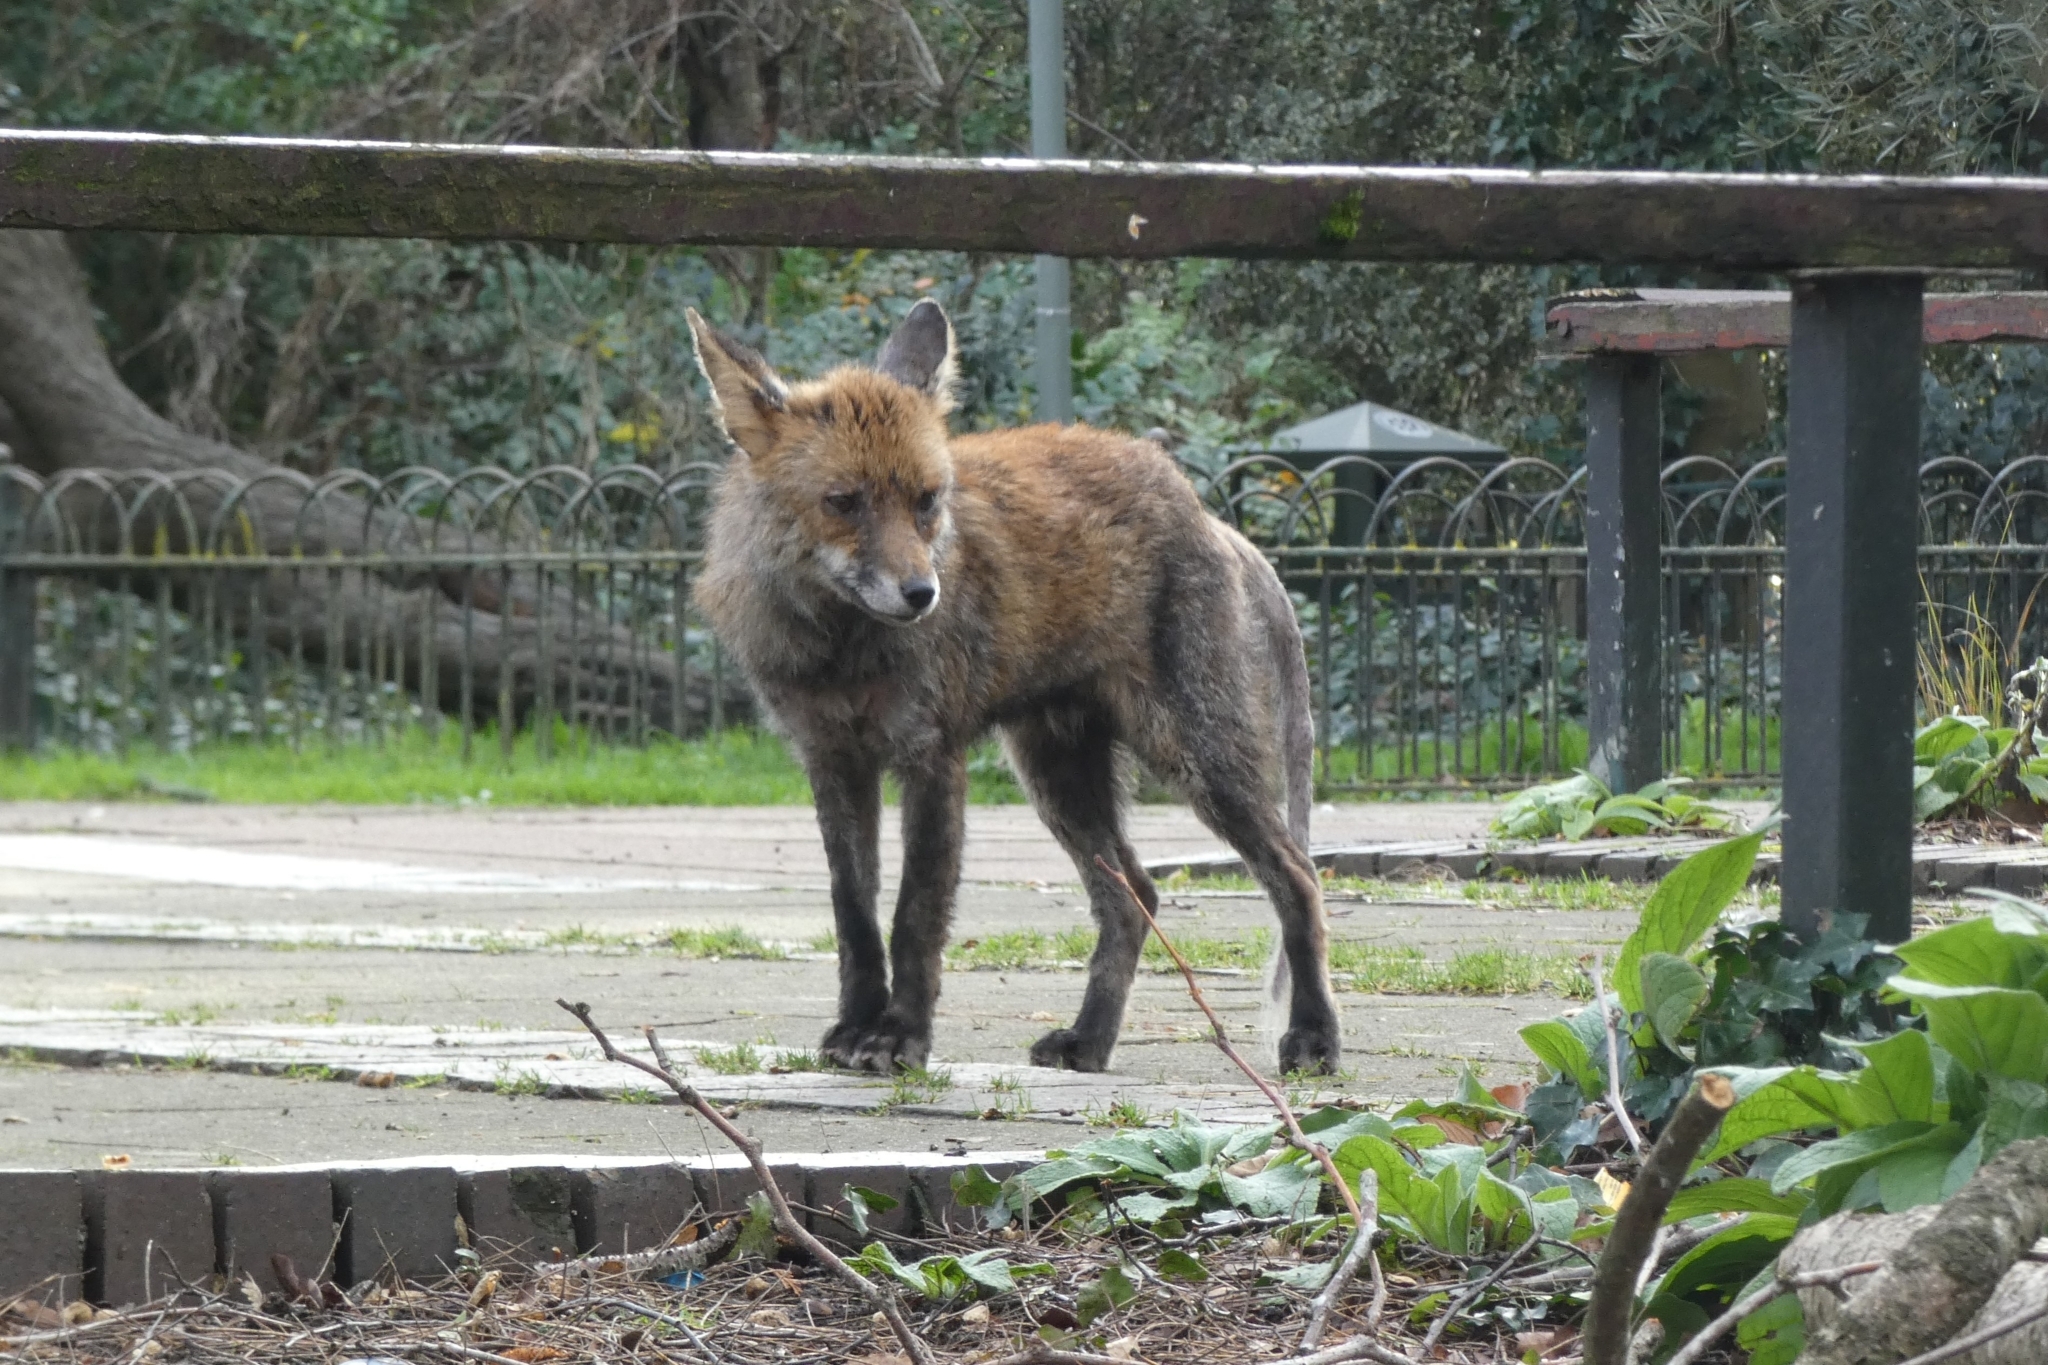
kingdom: Animalia
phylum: Chordata
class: Mammalia
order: Carnivora
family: Canidae
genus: Vulpes
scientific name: Vulpes vulpes
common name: Red fox
